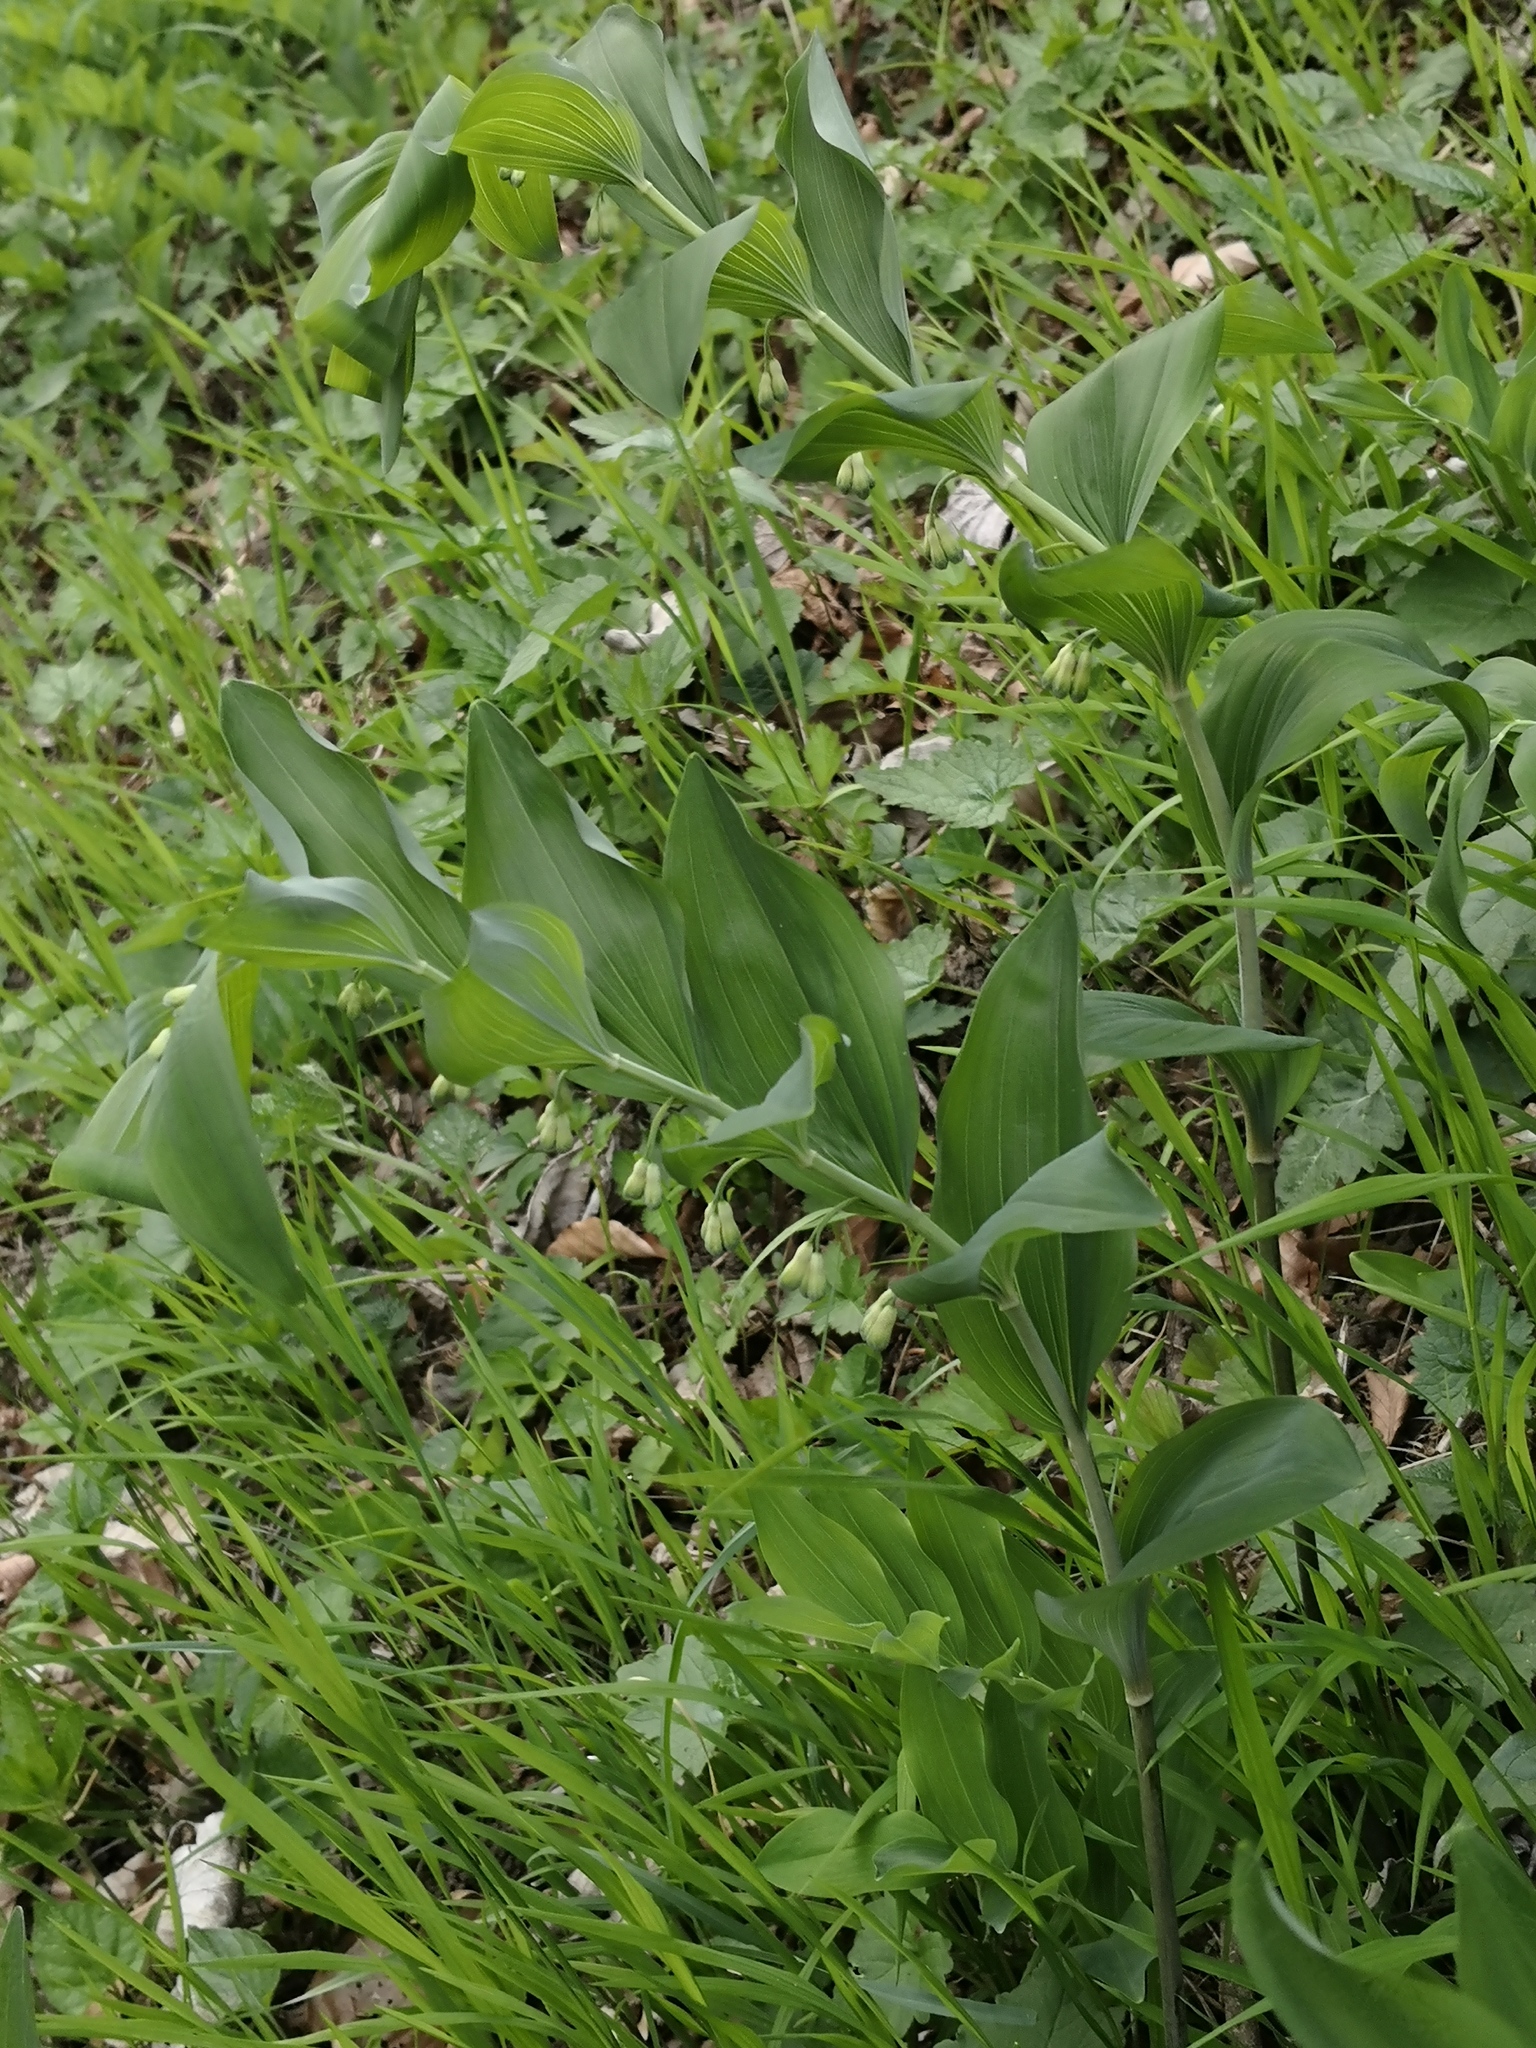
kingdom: Plantae
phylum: Tracheophyta
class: Liliopsida
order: Asparagales
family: Asparagaceae
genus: Polygonatum
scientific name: Polygonatum multiflorum
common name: Solomon's-seal
